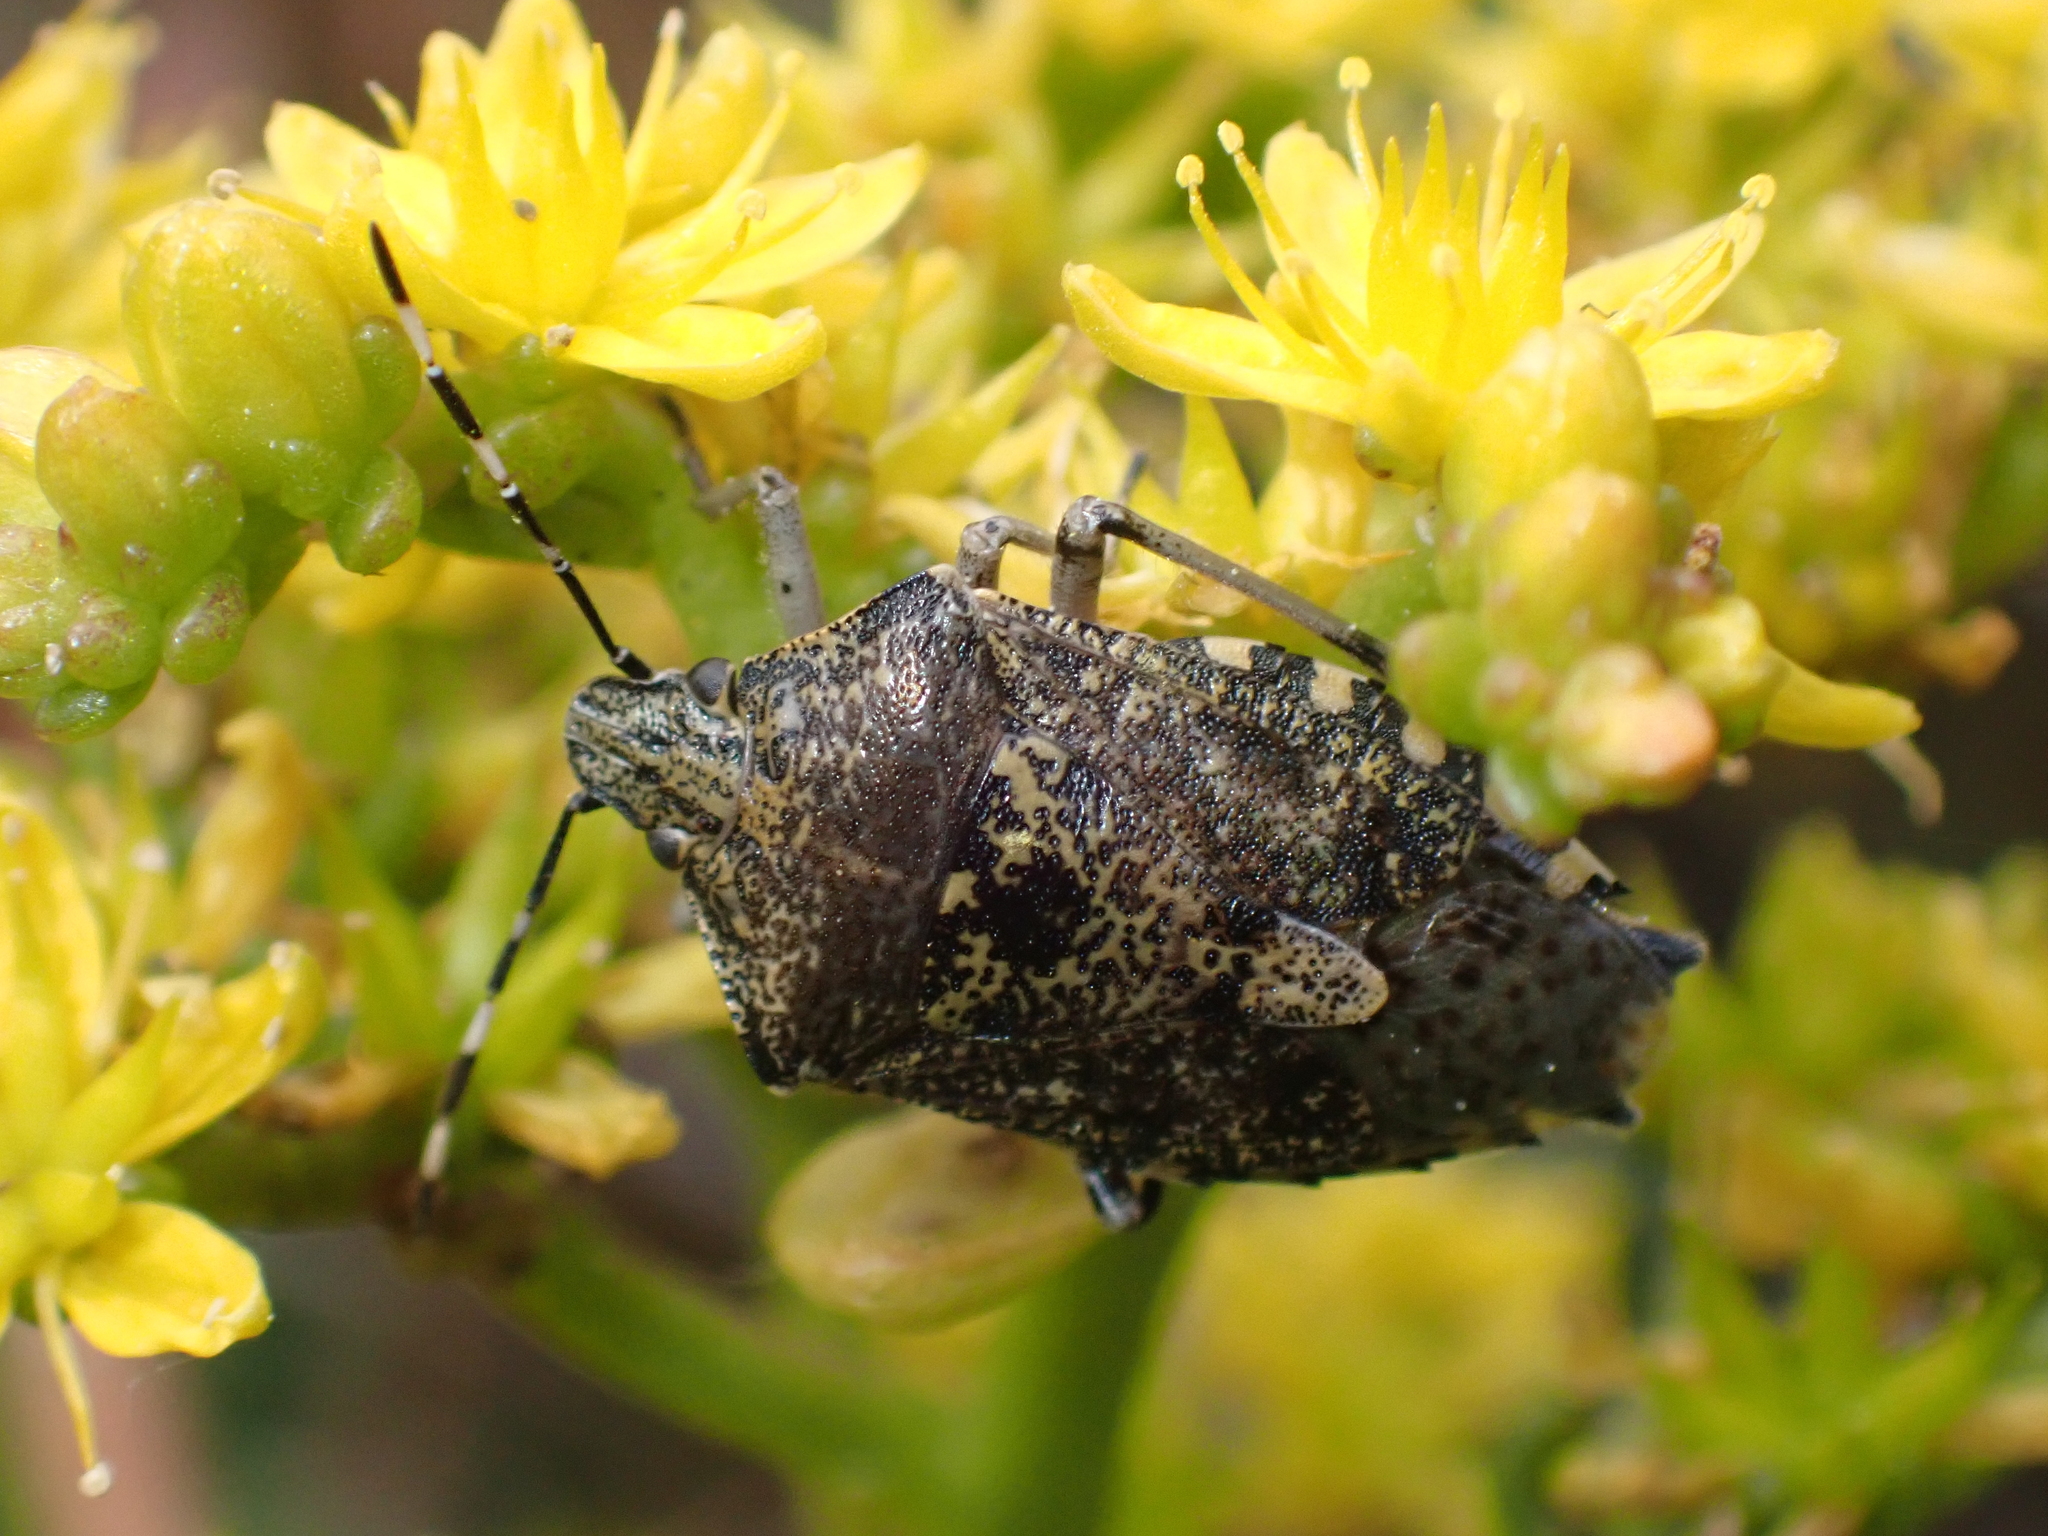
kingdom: Animalia
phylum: Arthropoda
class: Insecta
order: Hemiptera
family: Pentatomidae
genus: Rhaphigaster
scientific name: Rhaphigaster nebulosa
